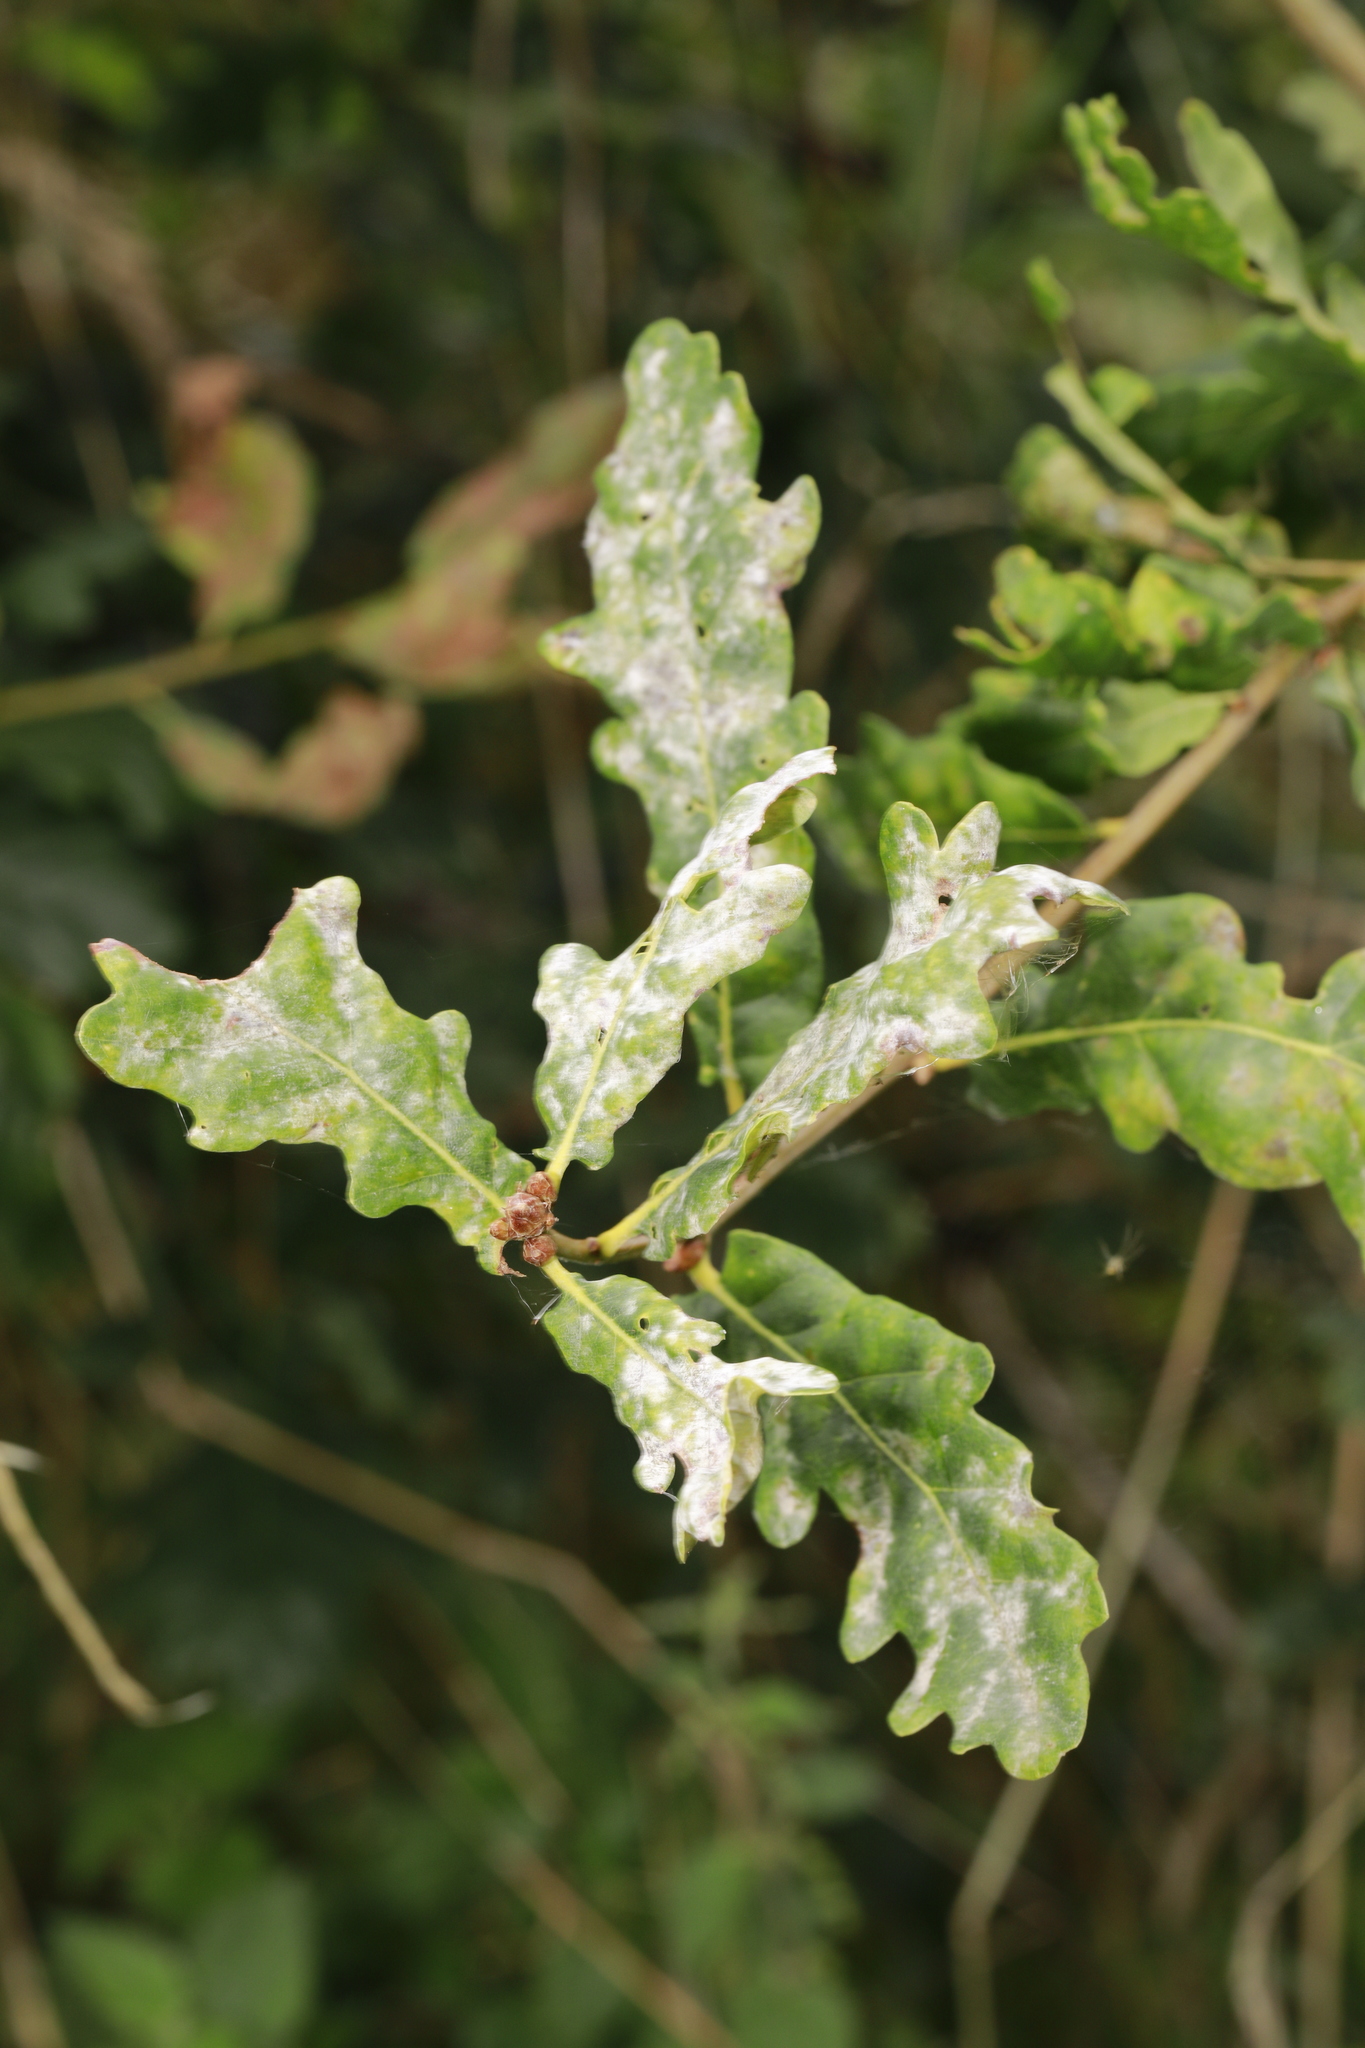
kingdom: Fungi
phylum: Ascomycota
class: Leotiomycetes
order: Helotiales
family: Erysiphaceae
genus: Erysiphe
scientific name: Erysiphe alphitoides
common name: Oak mildew
